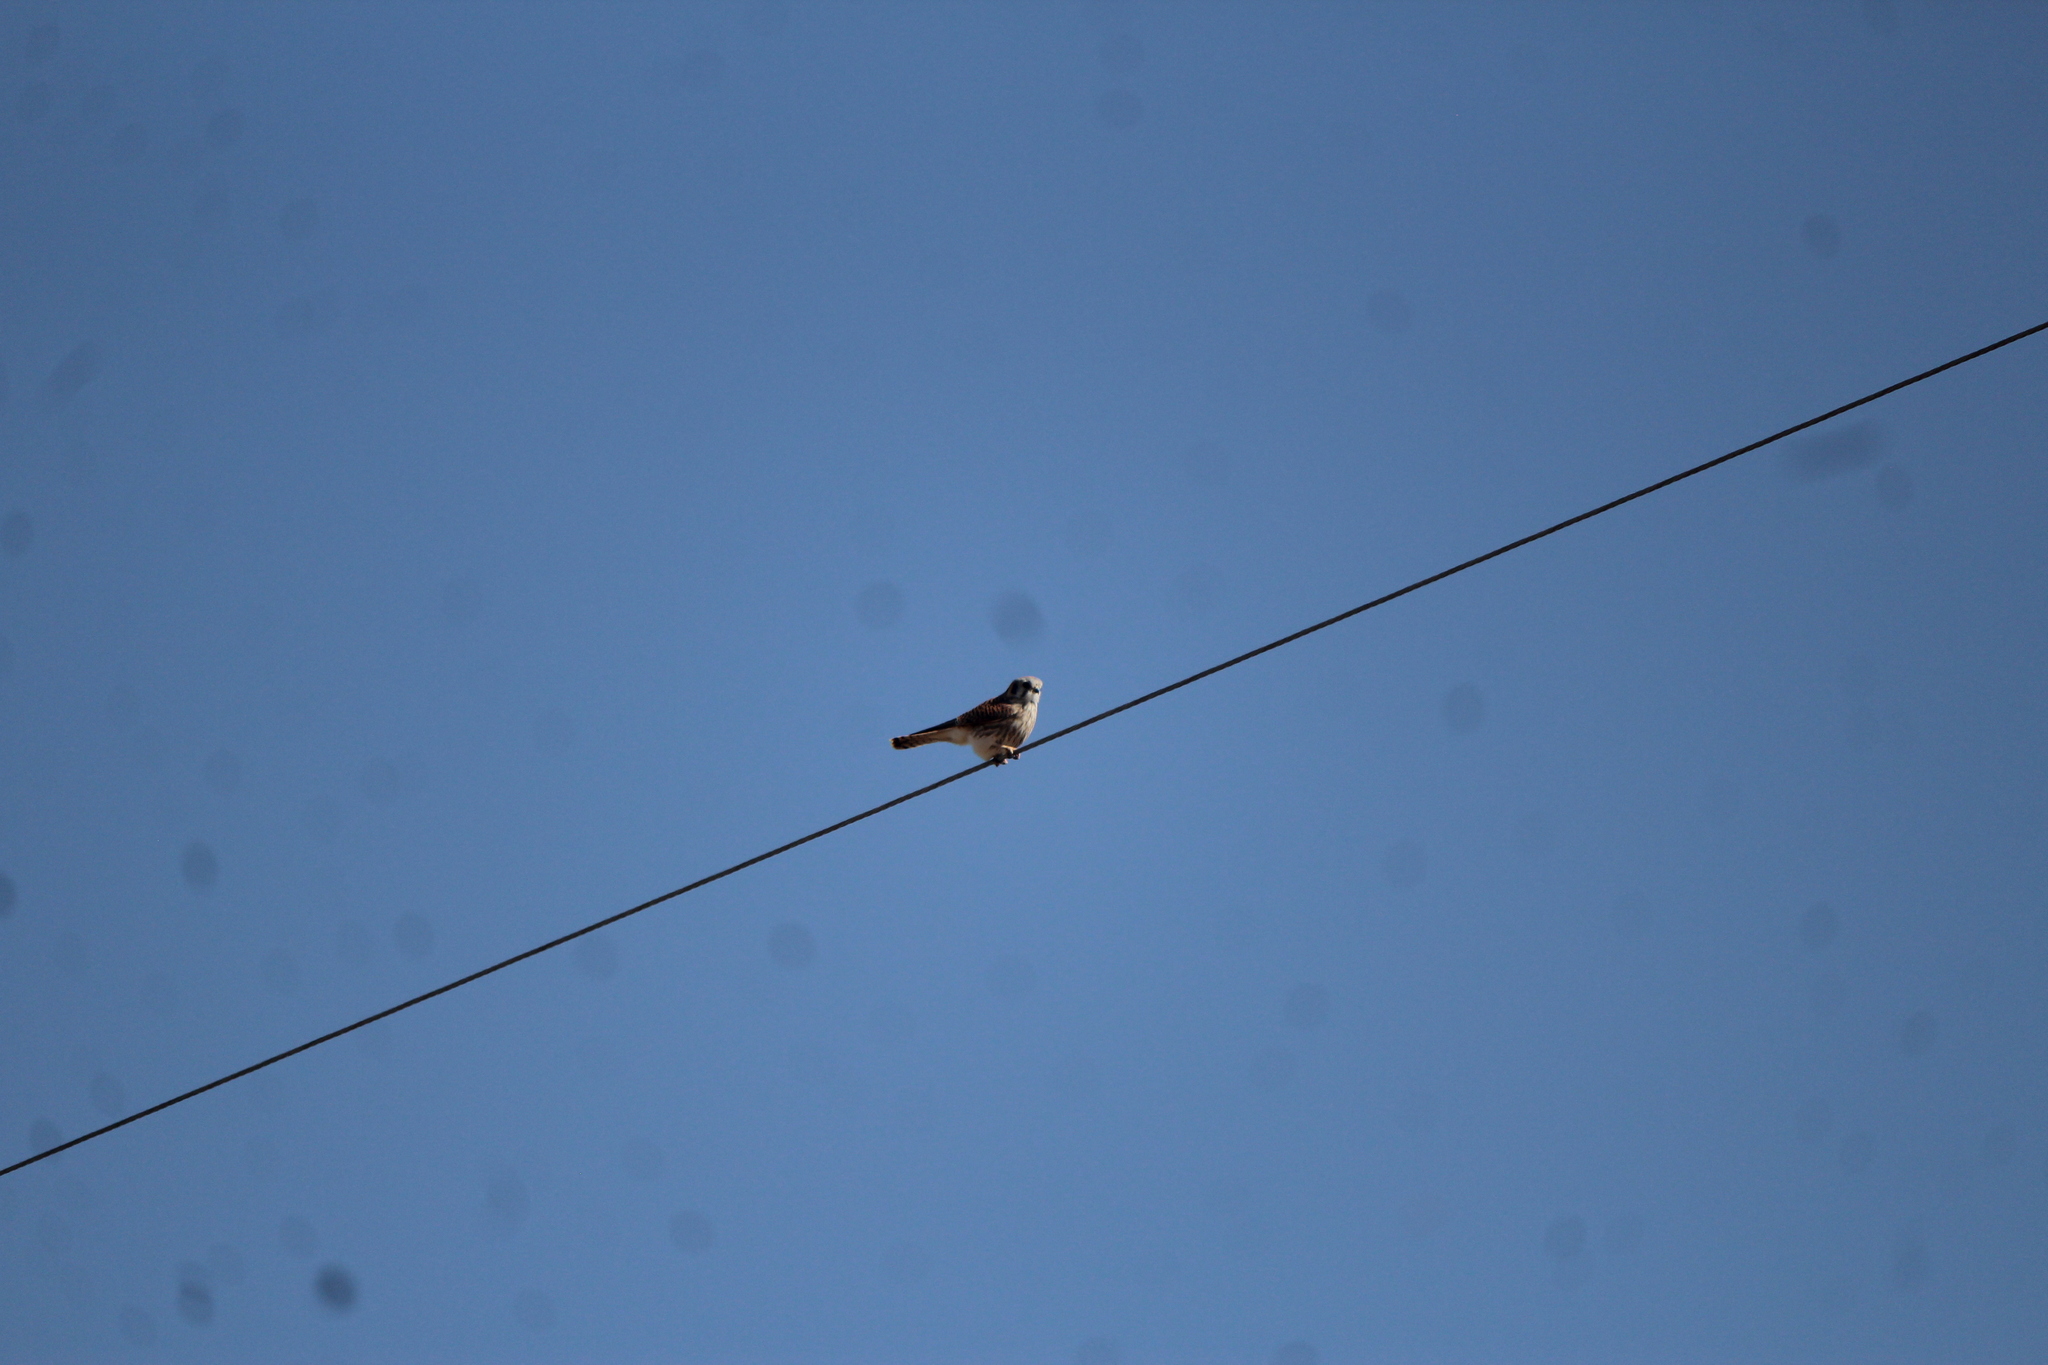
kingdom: Animalia
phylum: Chordata
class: Aves
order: Falconiformes
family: Falconidae
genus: Falco
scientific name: Falco sparverius
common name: American kestrel
